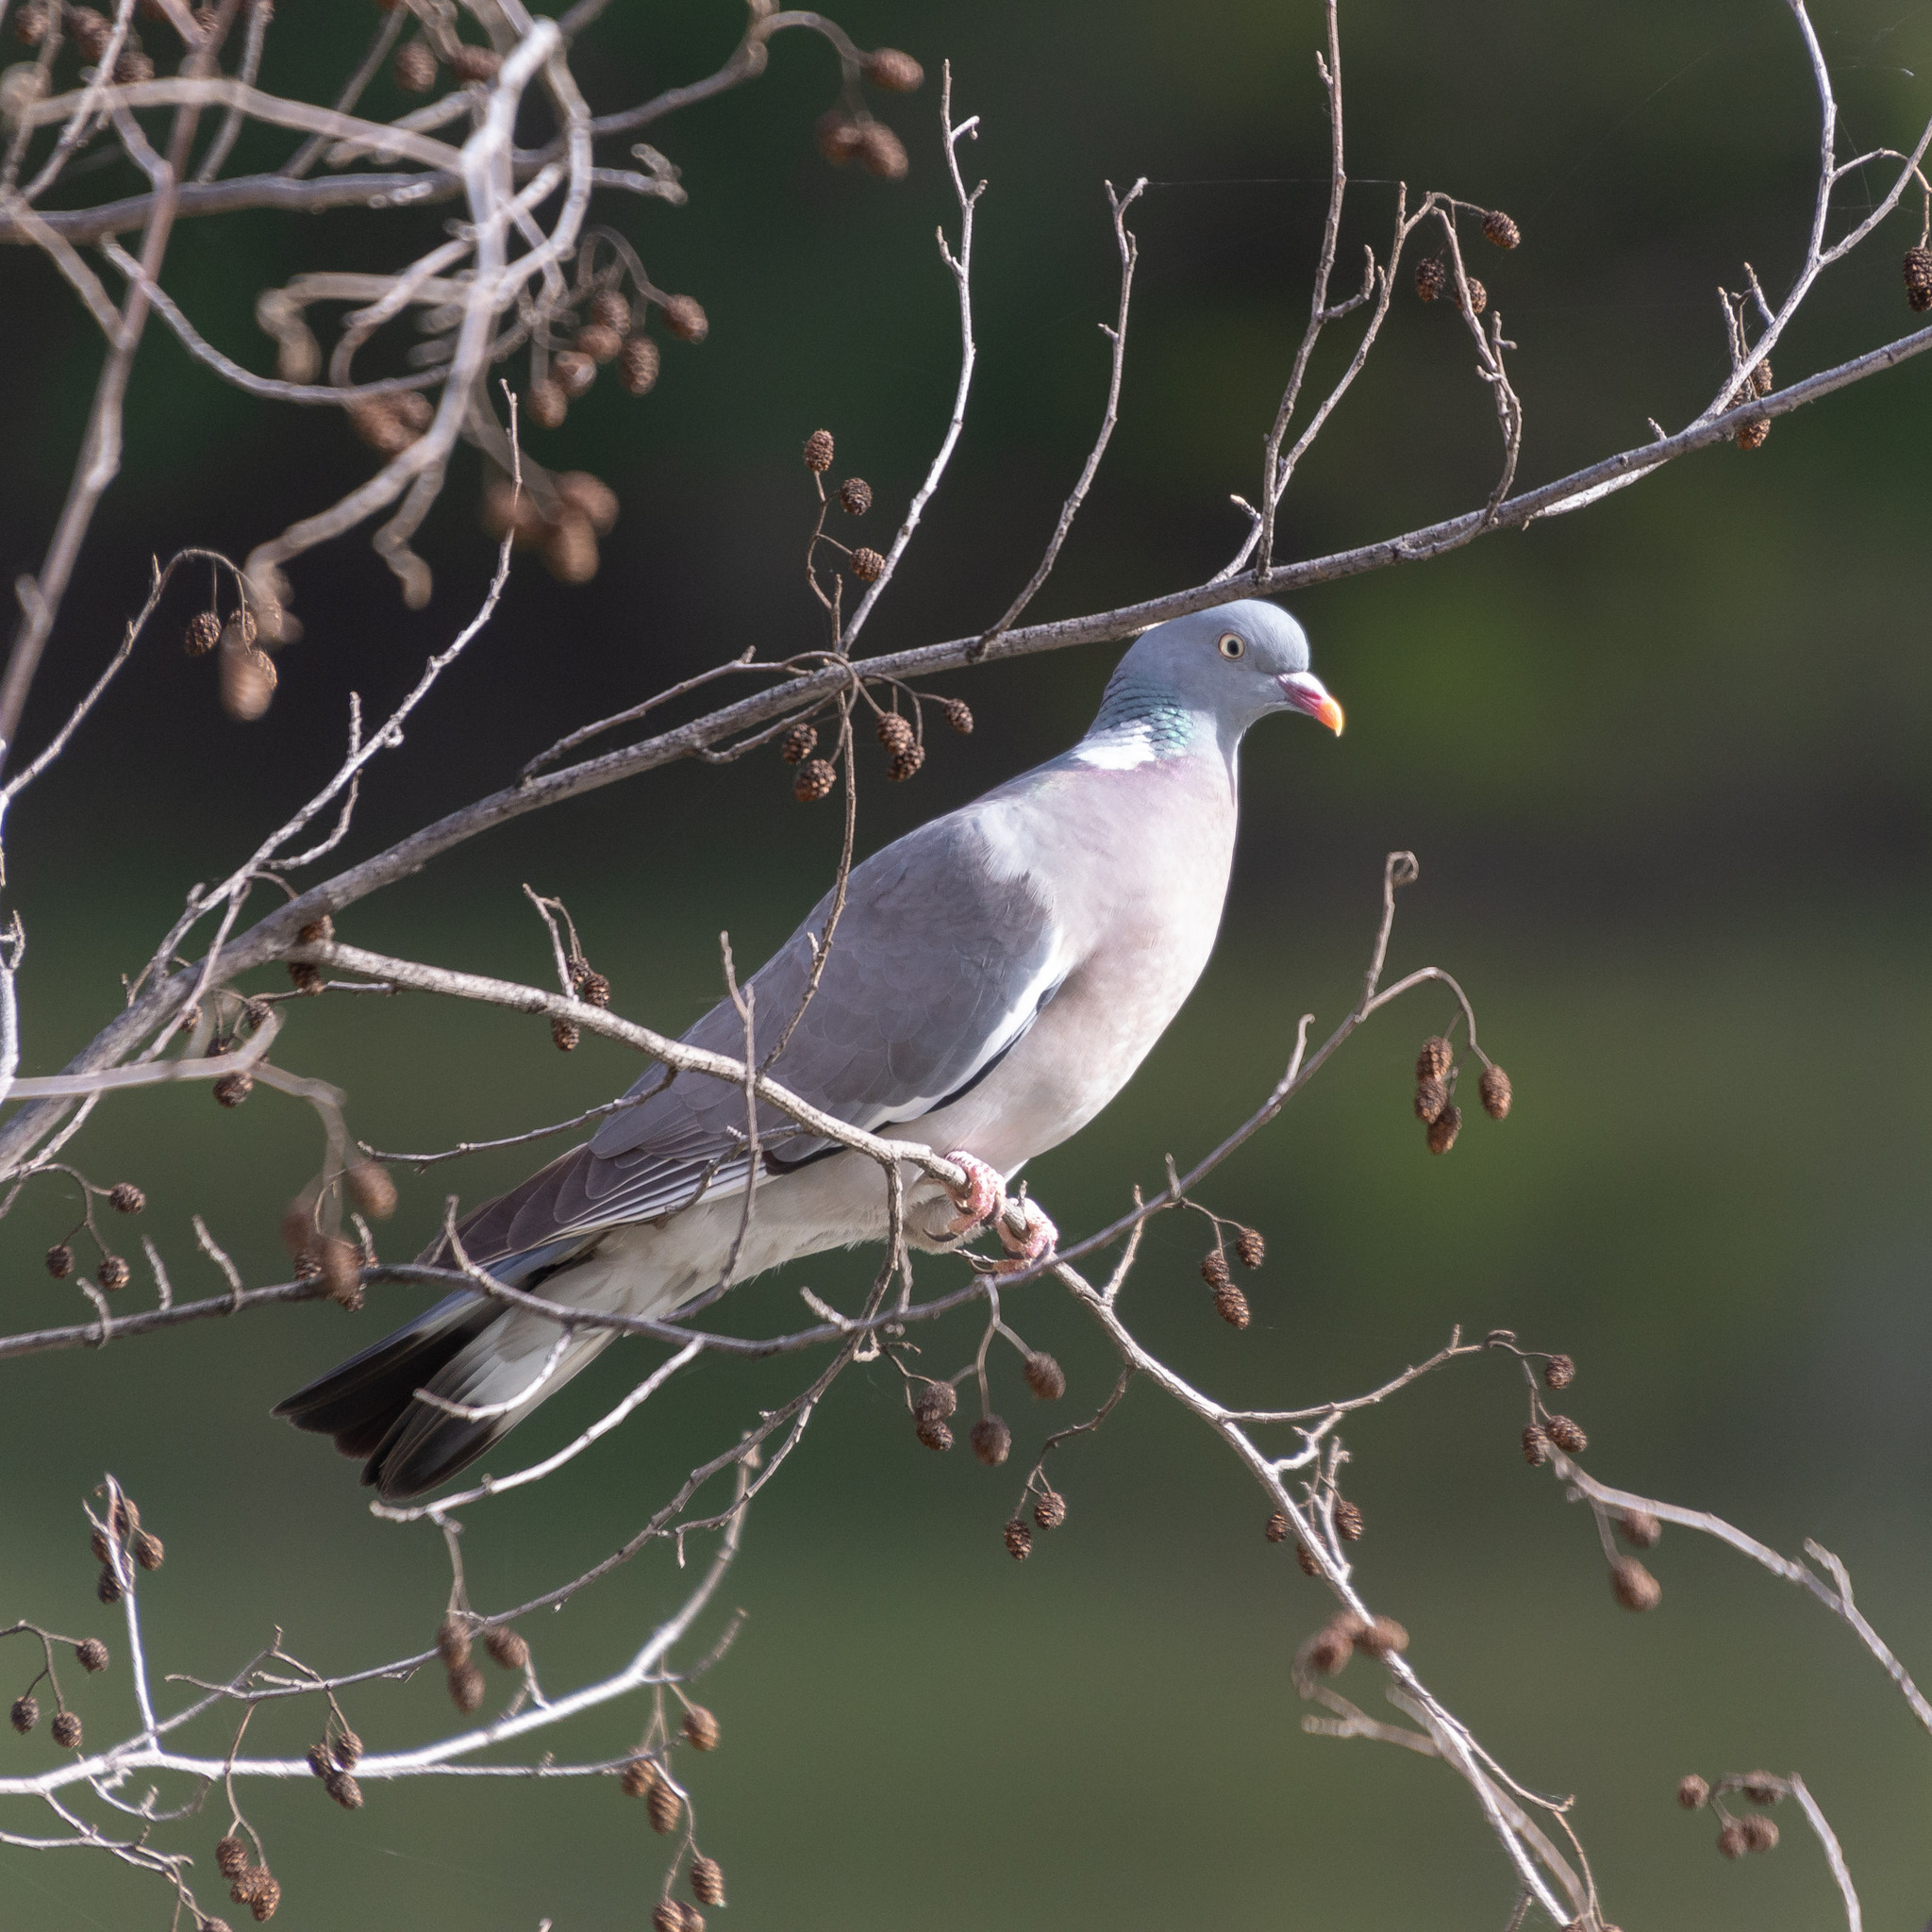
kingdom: Animalia
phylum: Chordata
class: Aves
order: Columbiformes
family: Columbidae
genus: Columba
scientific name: Columba palumbus
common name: Common wood pigeon
